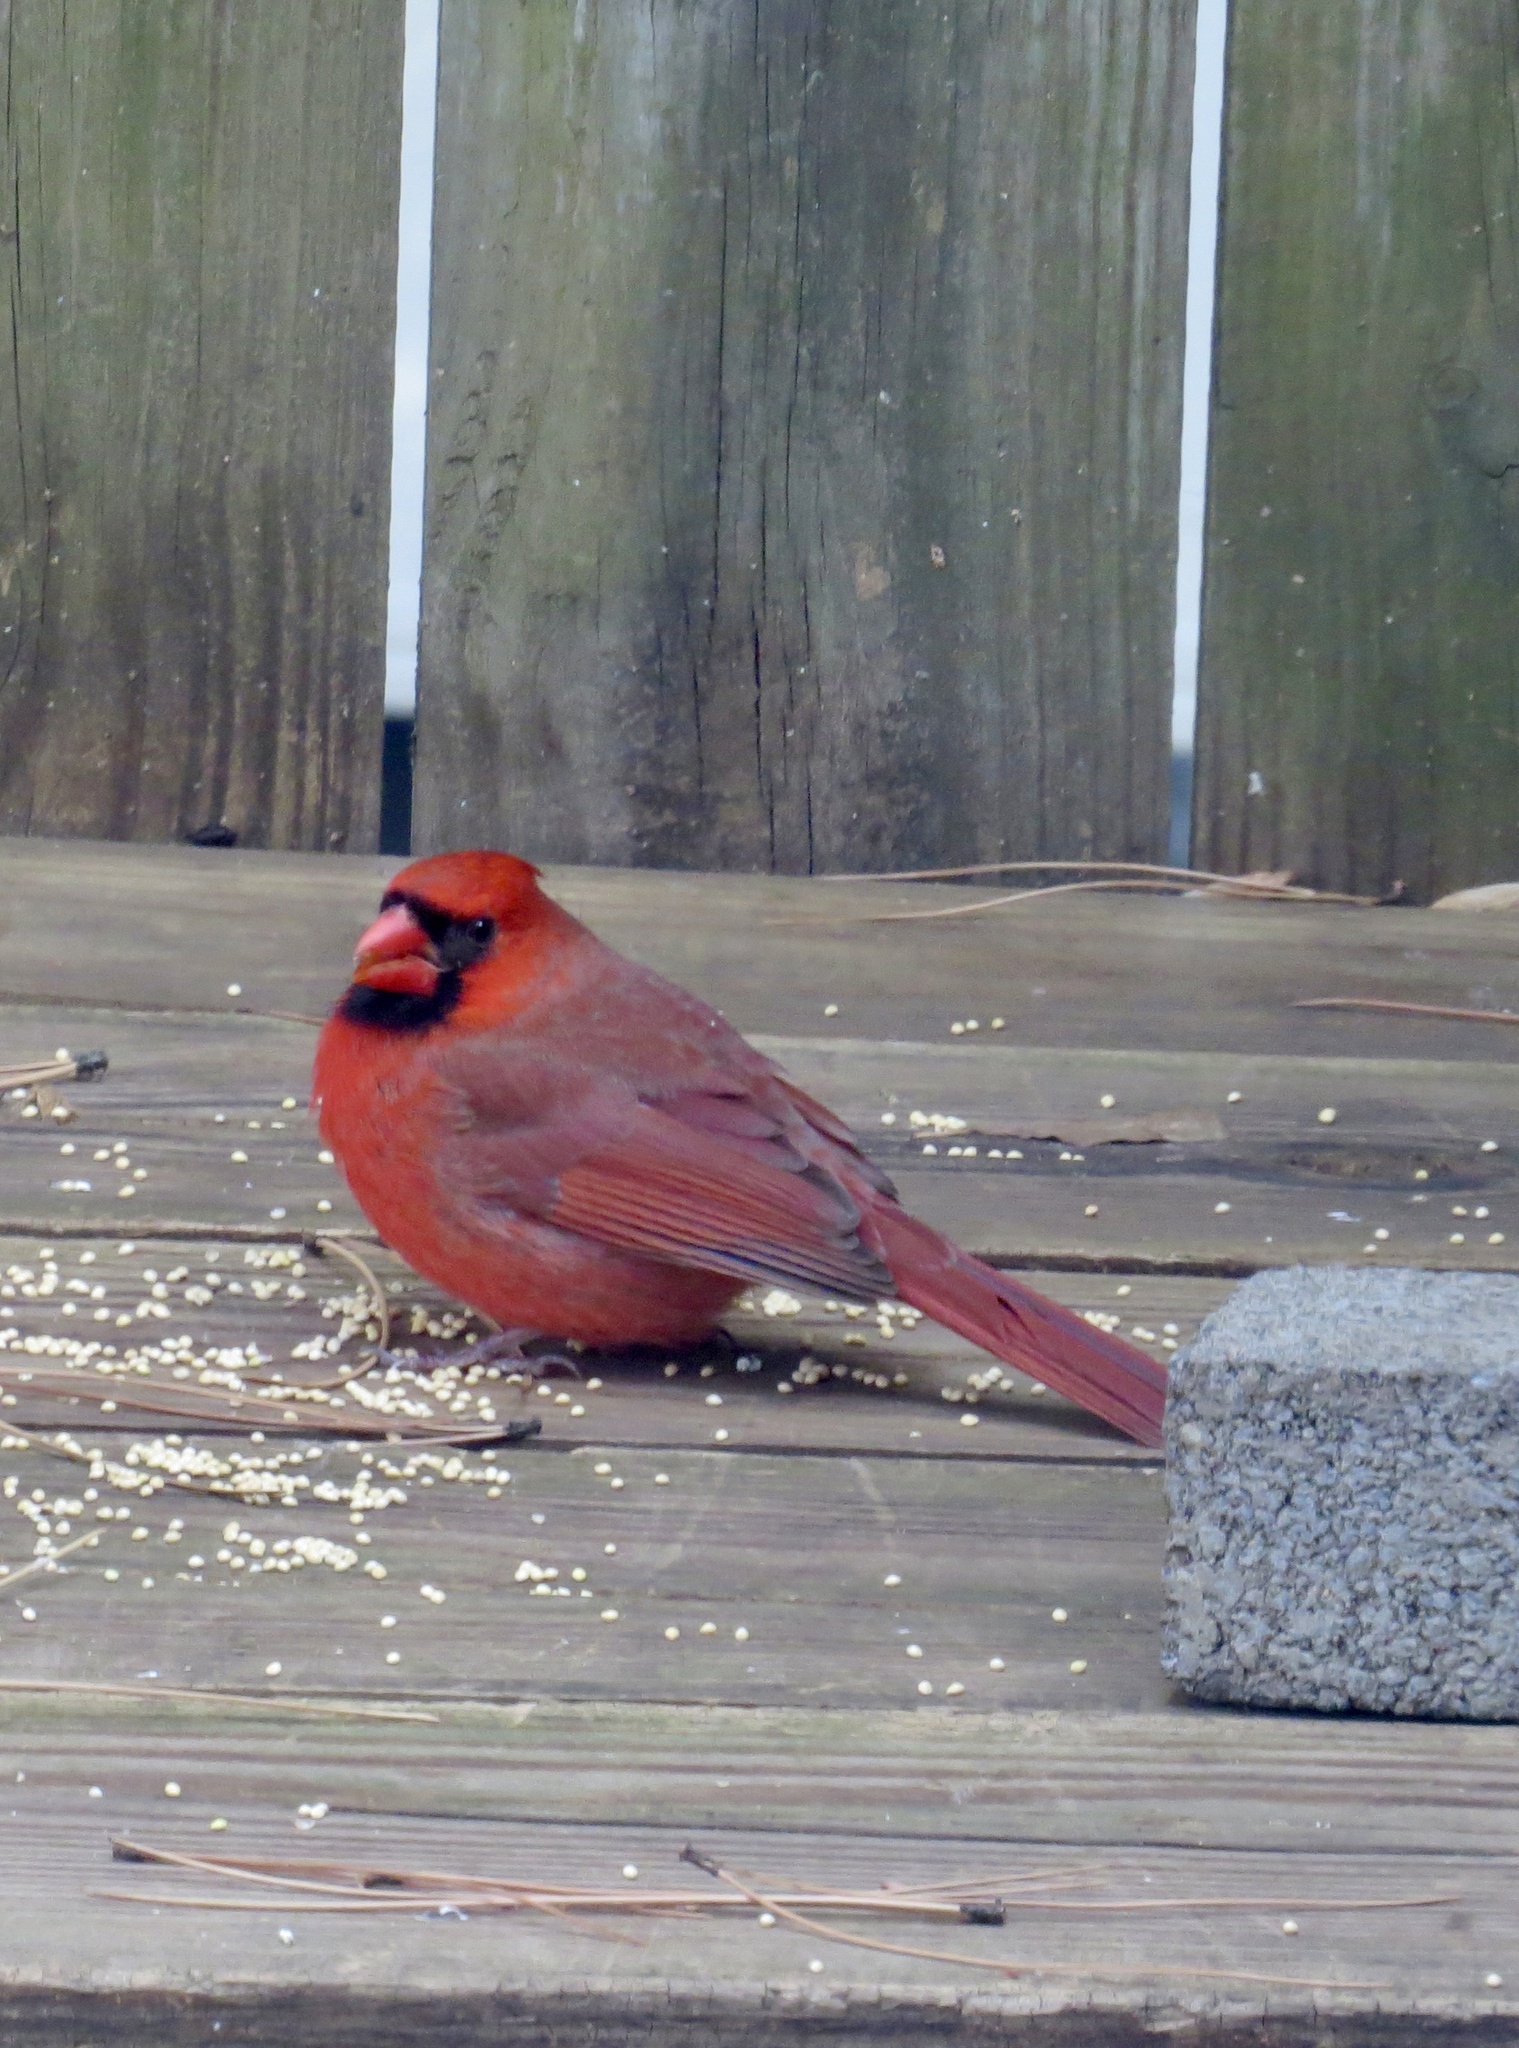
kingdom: Animalia
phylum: Chordata
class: Aves
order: Passeriformes
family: Cardinalidae
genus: Cardinalis
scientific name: Cardinalis cardinalis
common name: Northern cardinal
